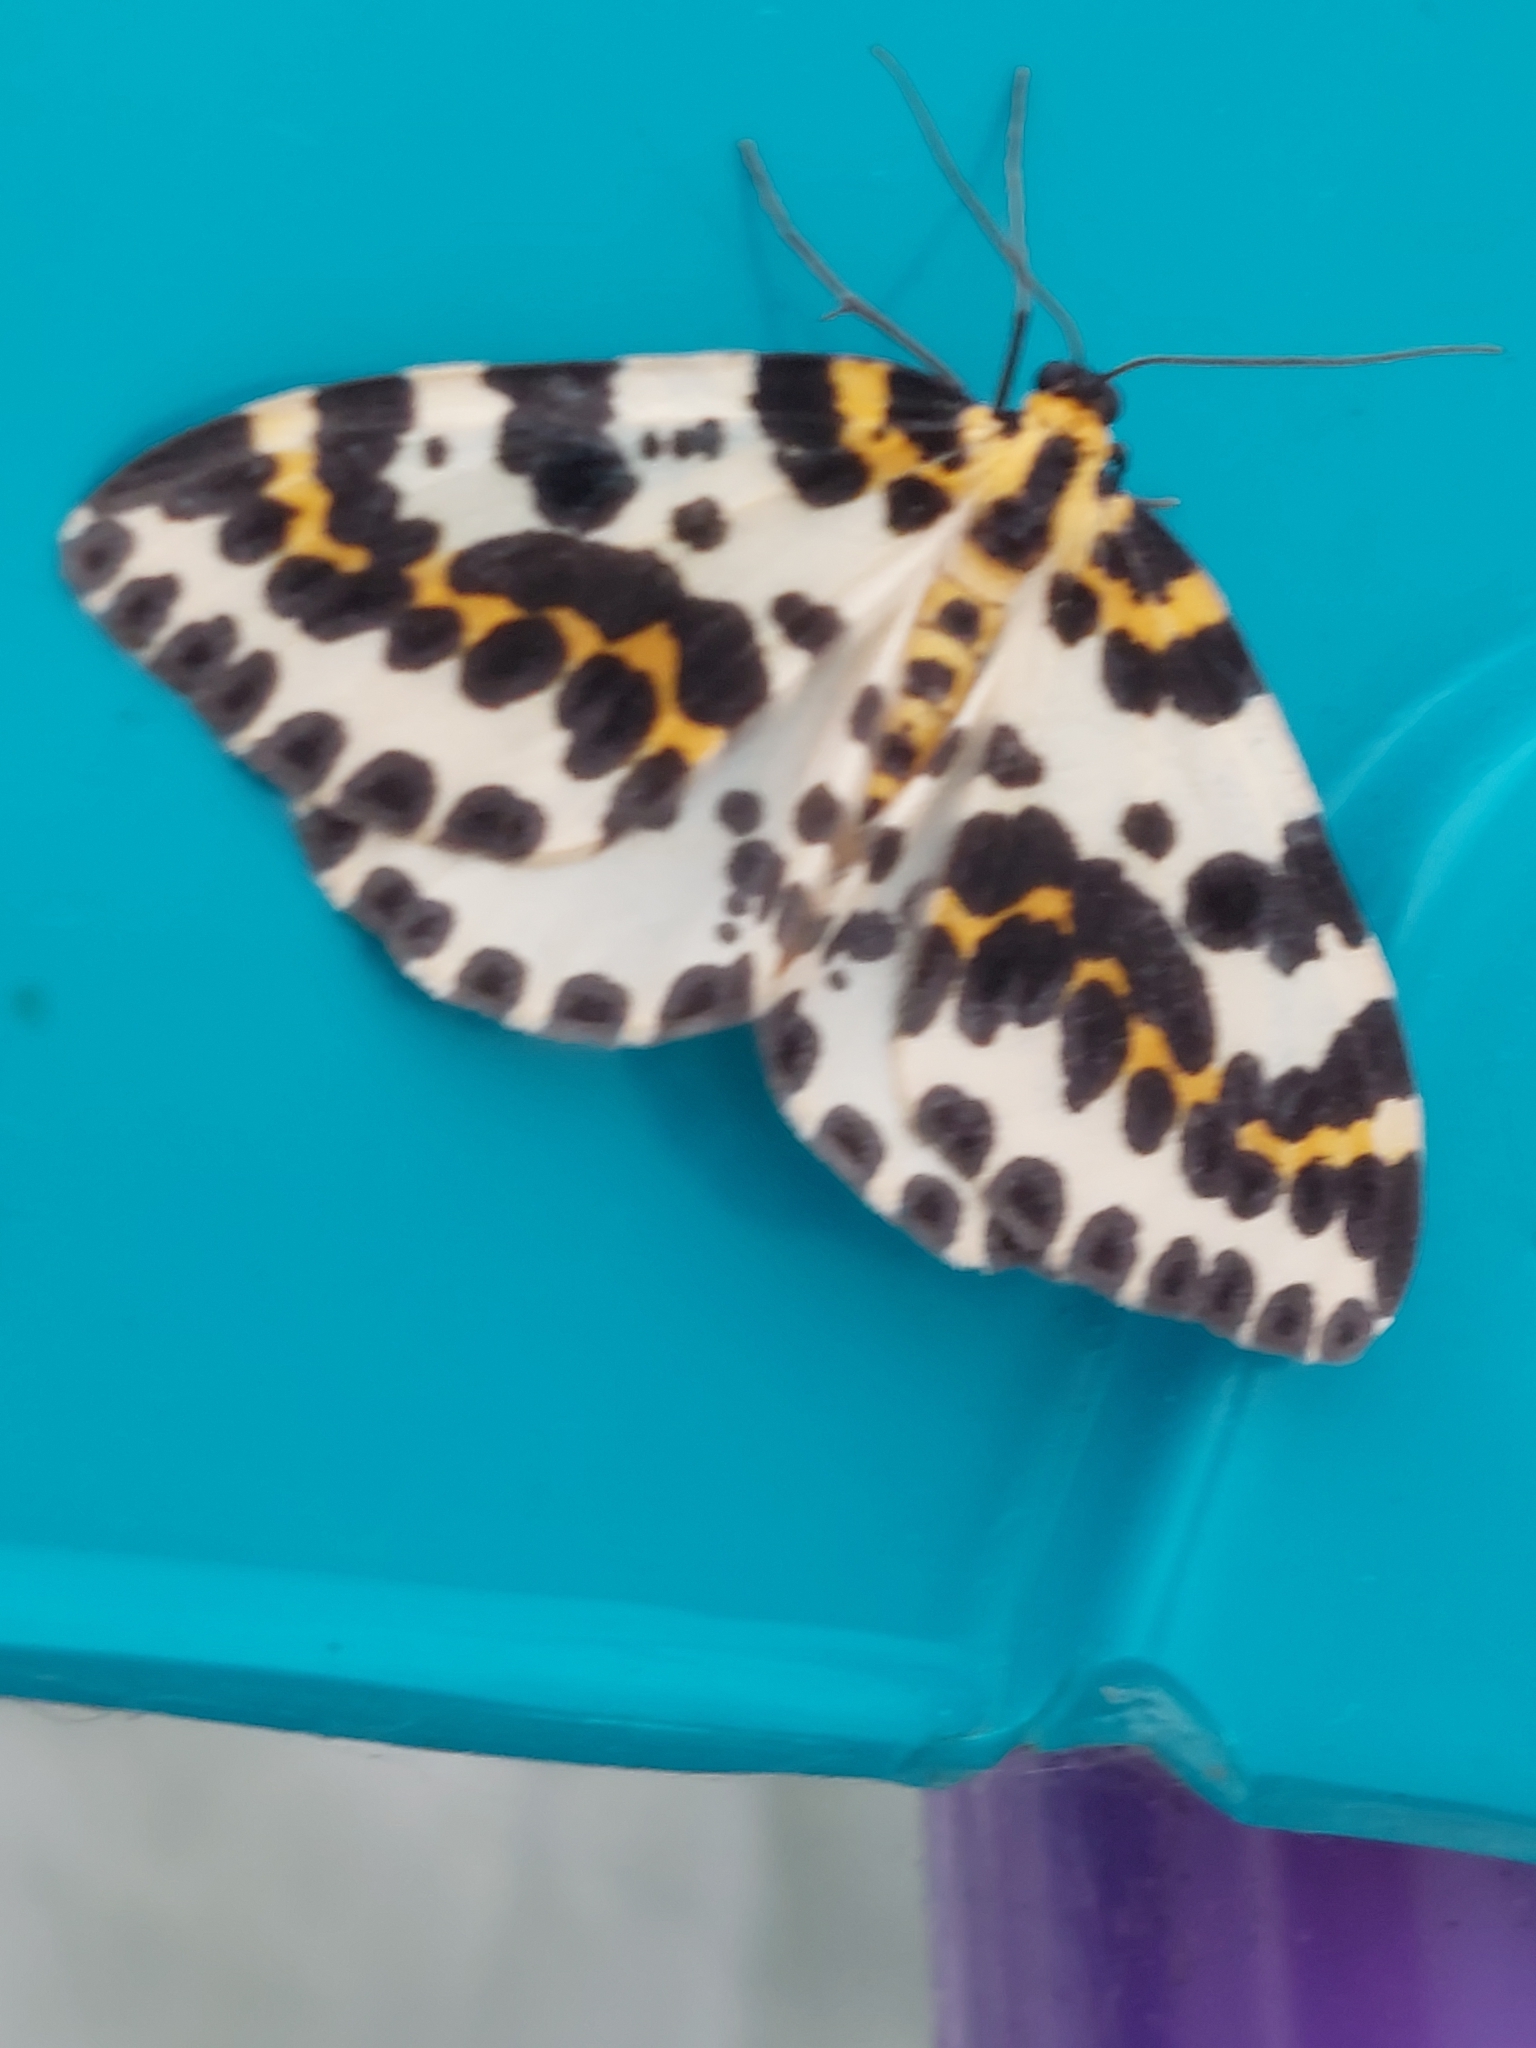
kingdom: Animalia
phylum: Arthropoda
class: Insecta
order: Lepidoptera
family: Geometridae
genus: Abraxas
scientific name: Abraxas grossulariata
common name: Magpie
